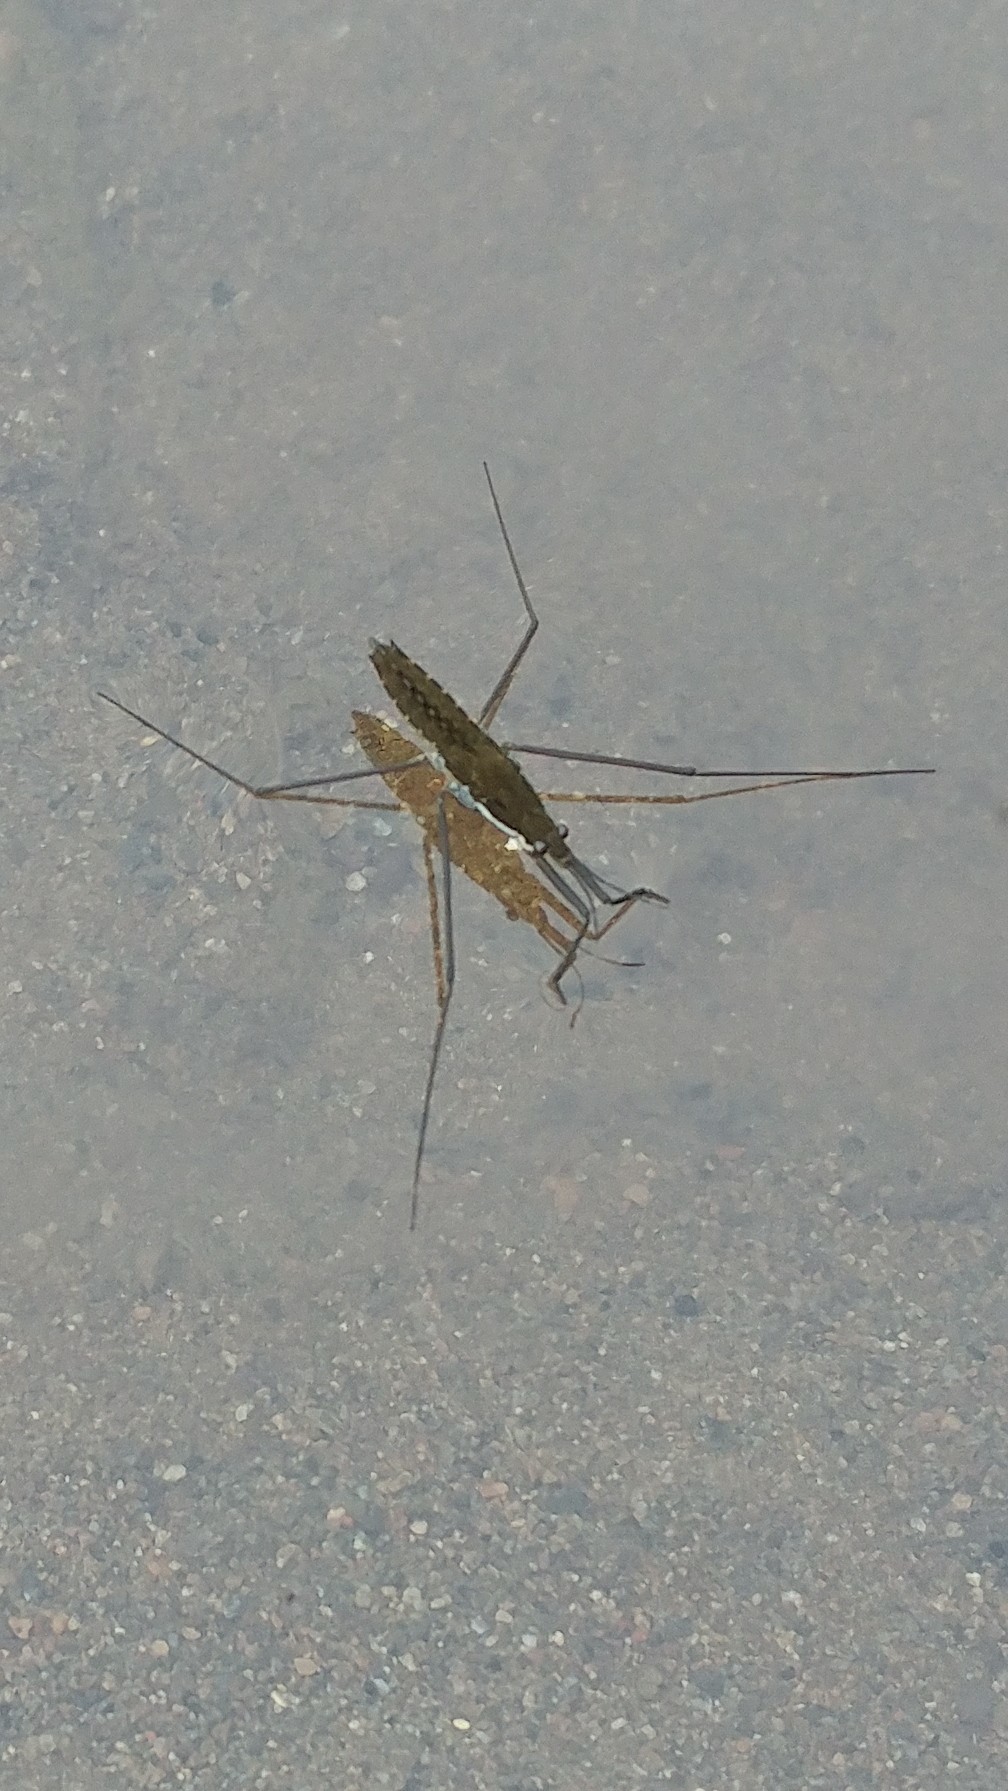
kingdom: Animalia
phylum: Arthropoda
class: Insecta
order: Hemiptera
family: Gerridae
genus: Aquarius
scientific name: Aquarius remigis
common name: Common water strider
